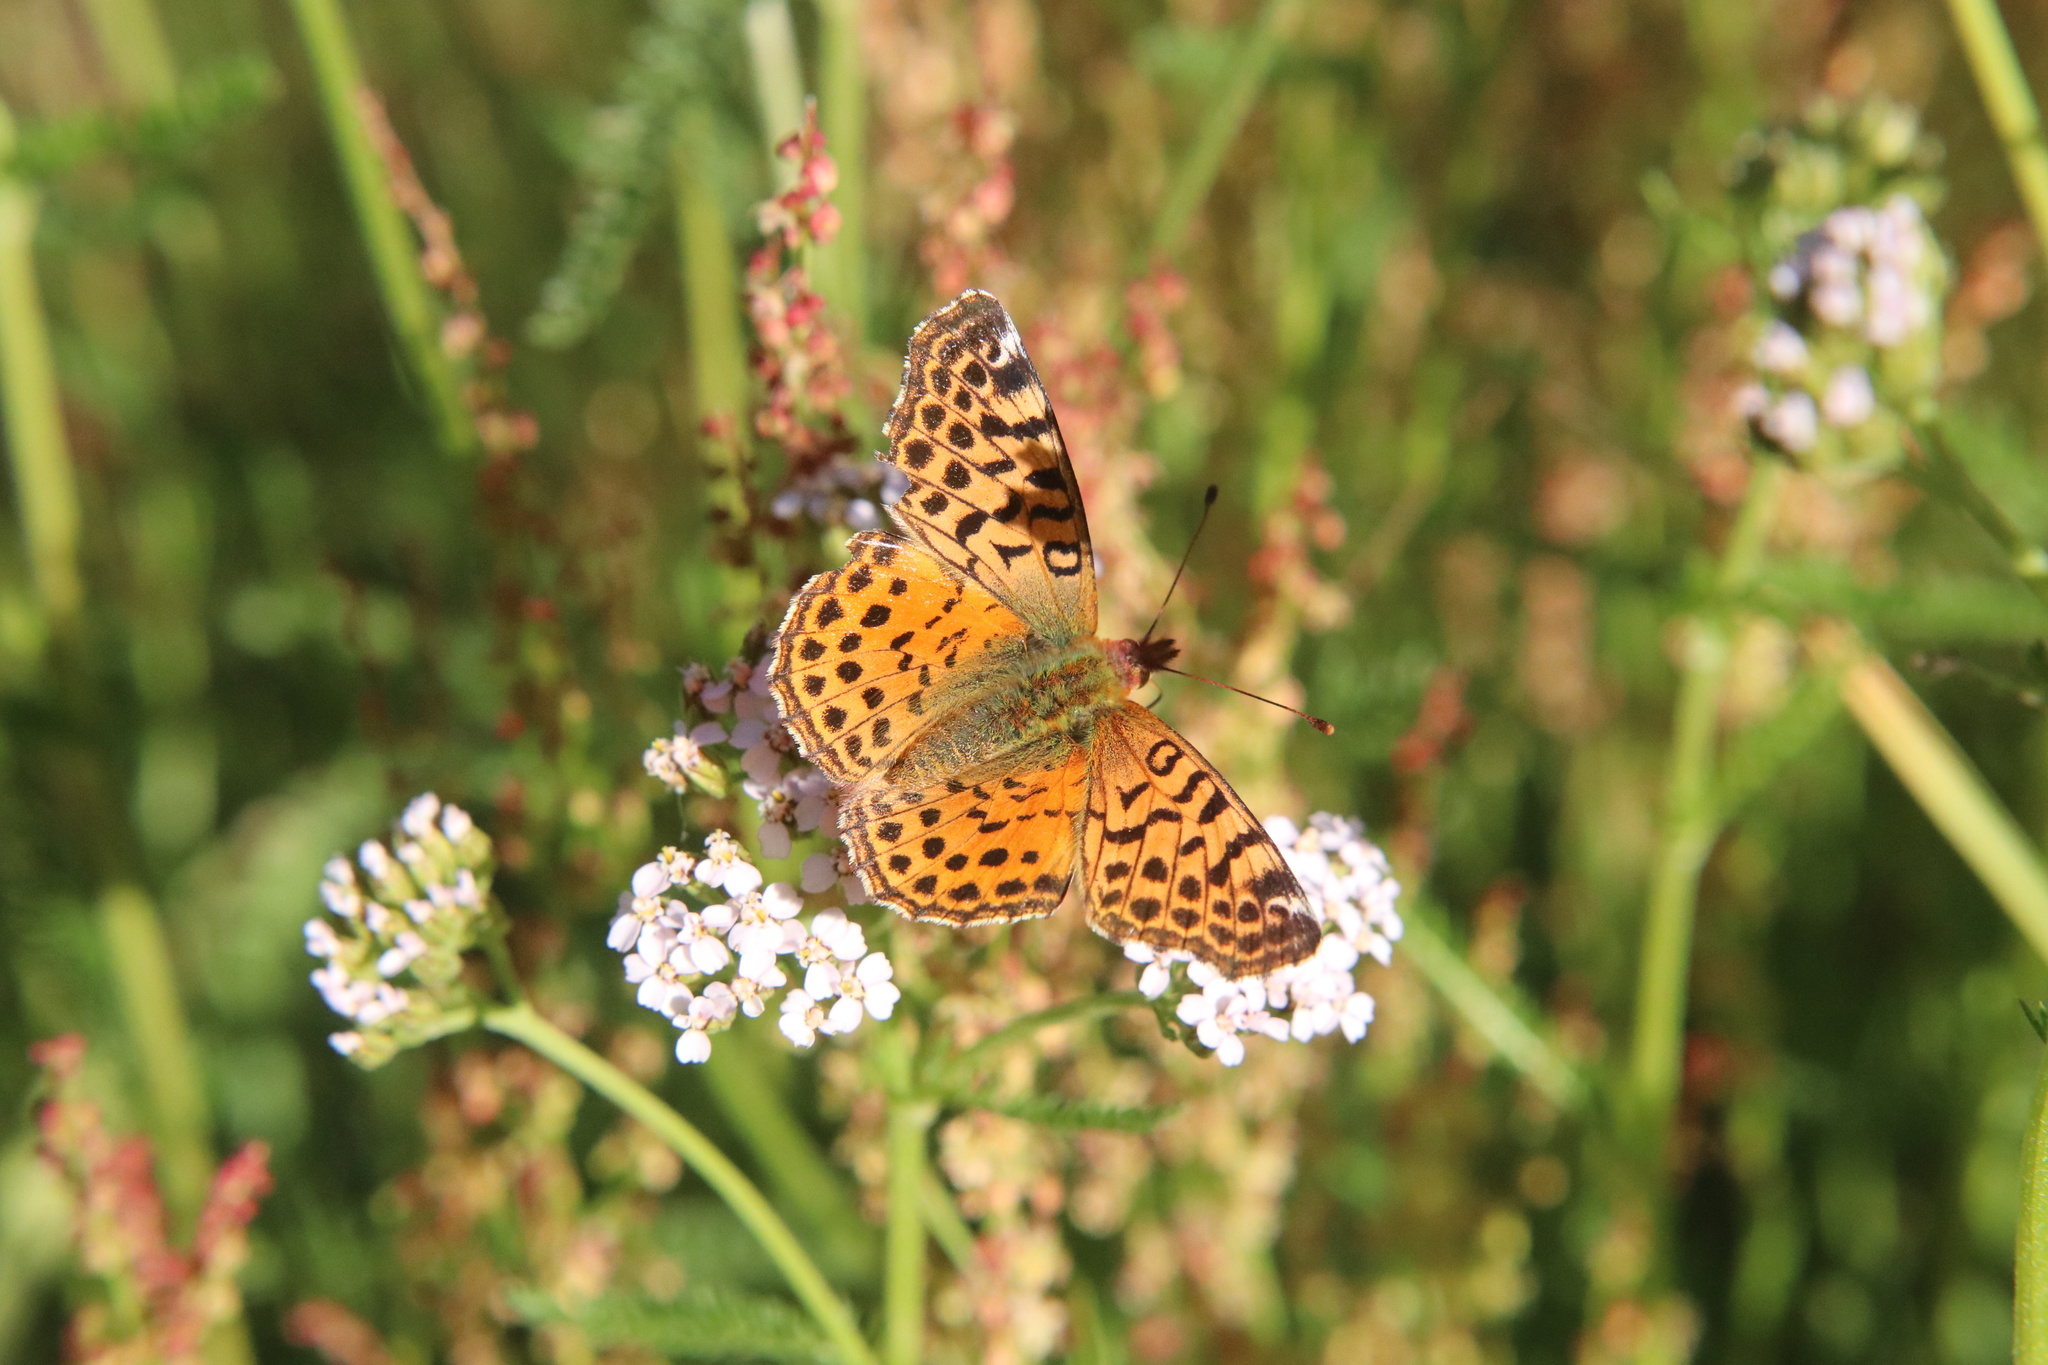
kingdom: Animalia
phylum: Arthropoda
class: Insecta
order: Lepidoptera
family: Nymphalidae
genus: Issoria
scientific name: Issoria Yramea cytheris
